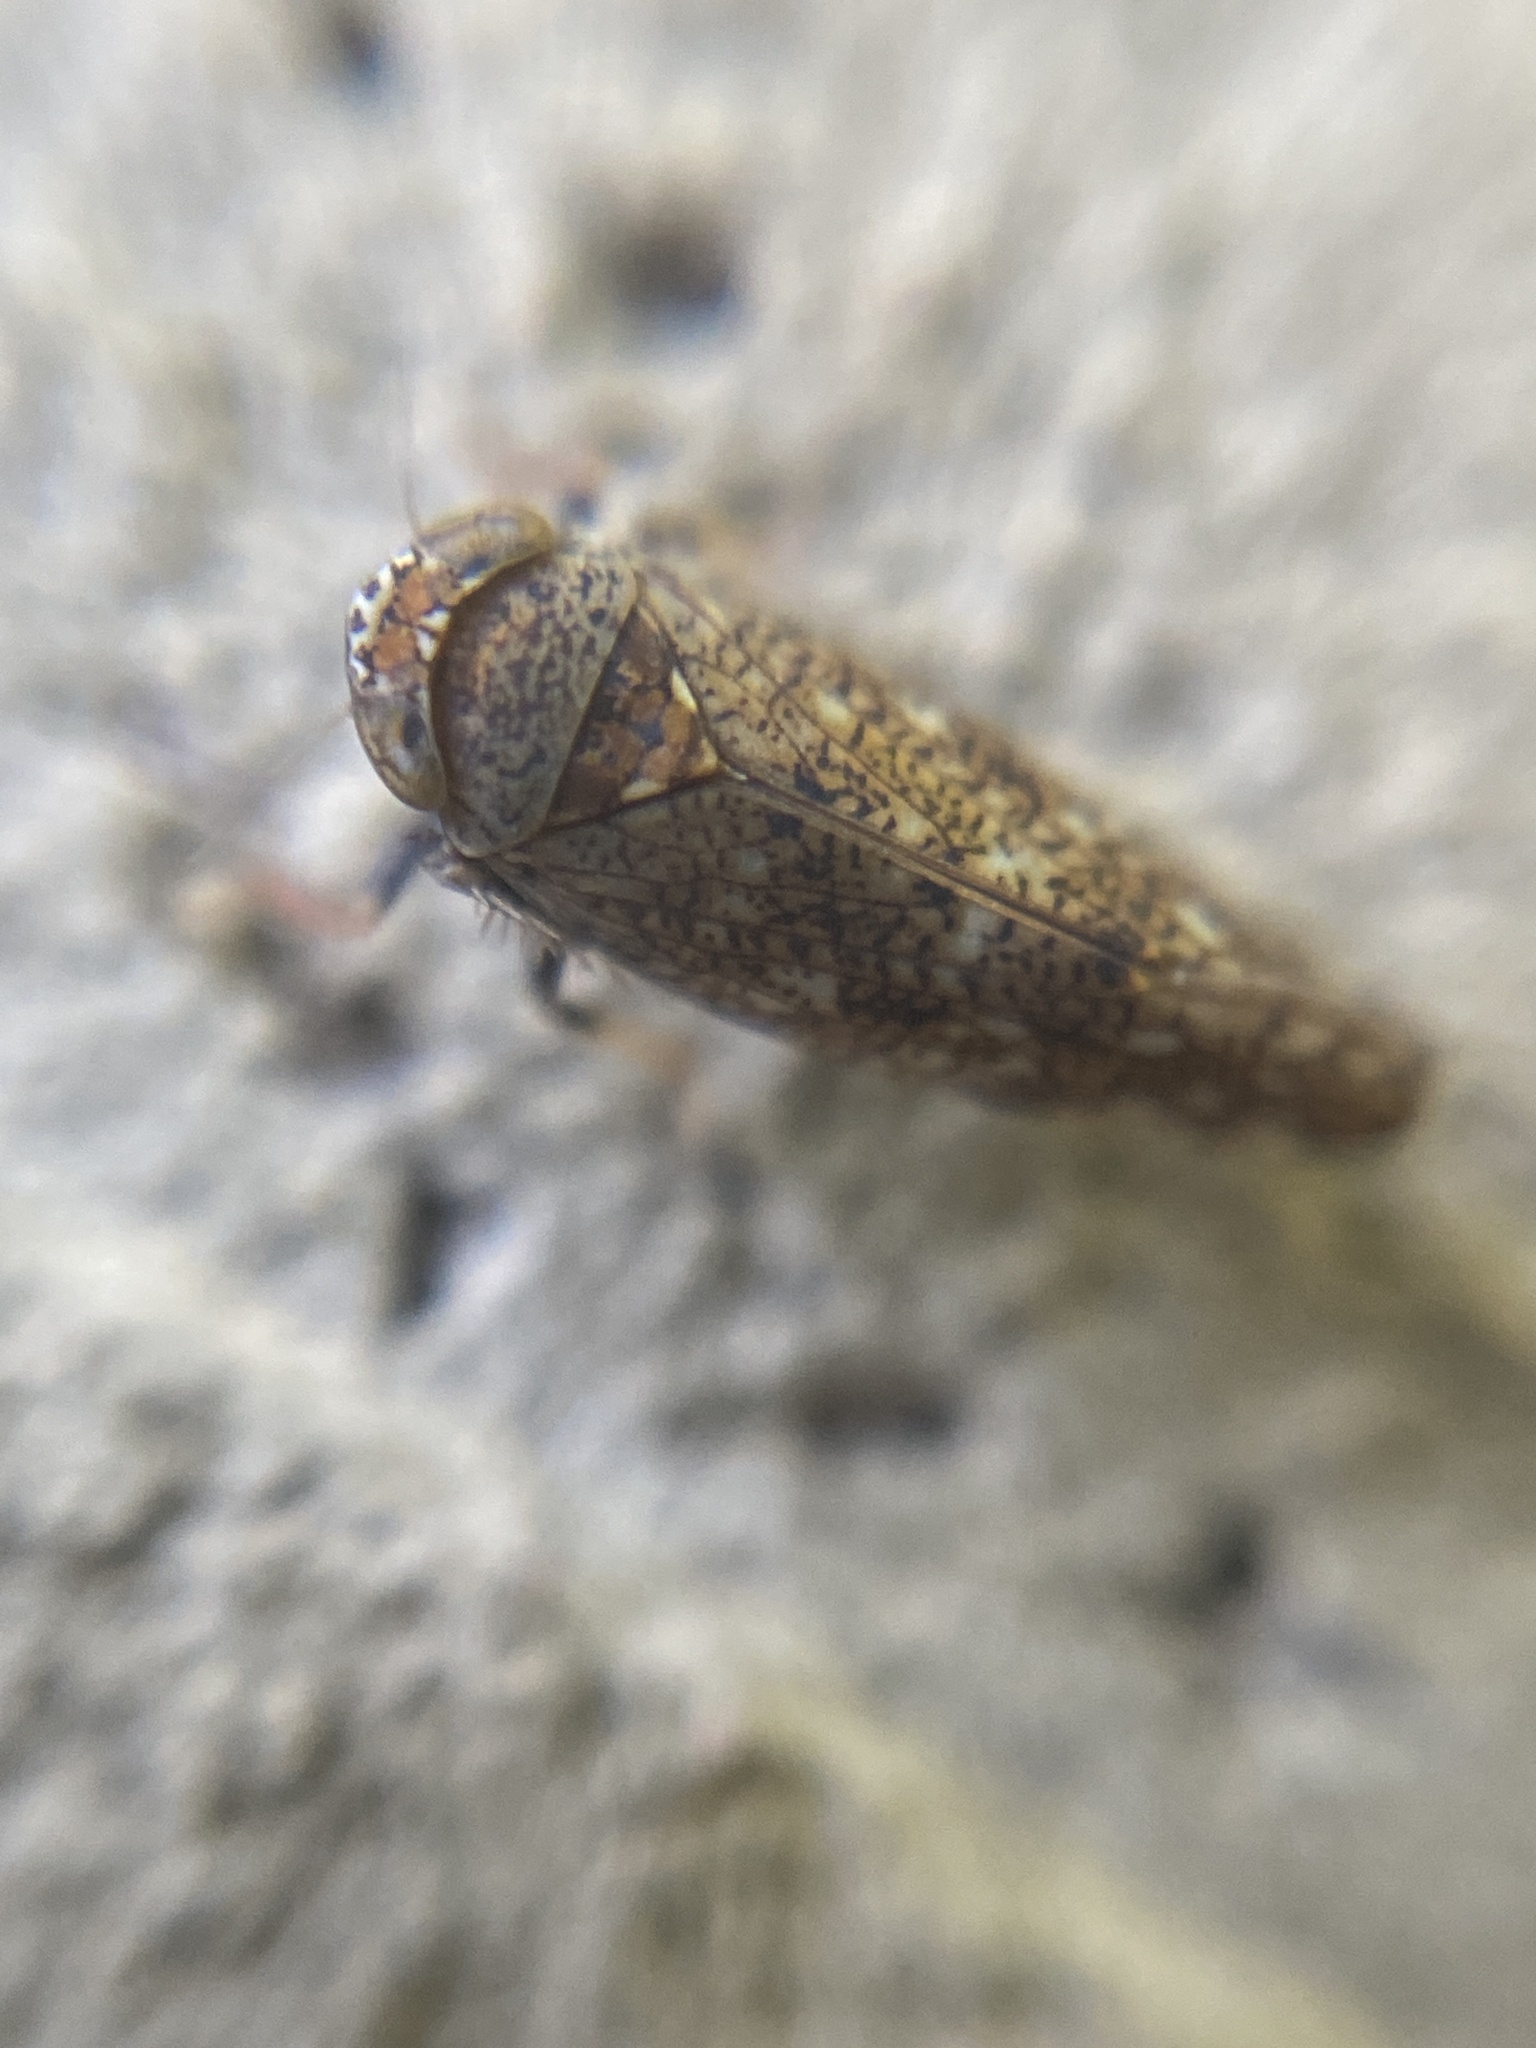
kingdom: Animalia
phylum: Arthropoda
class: Insecta
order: Hemiptera
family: Cicadellidae
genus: Orientus
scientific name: Orientus ishidae
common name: Japanese leafhopper
